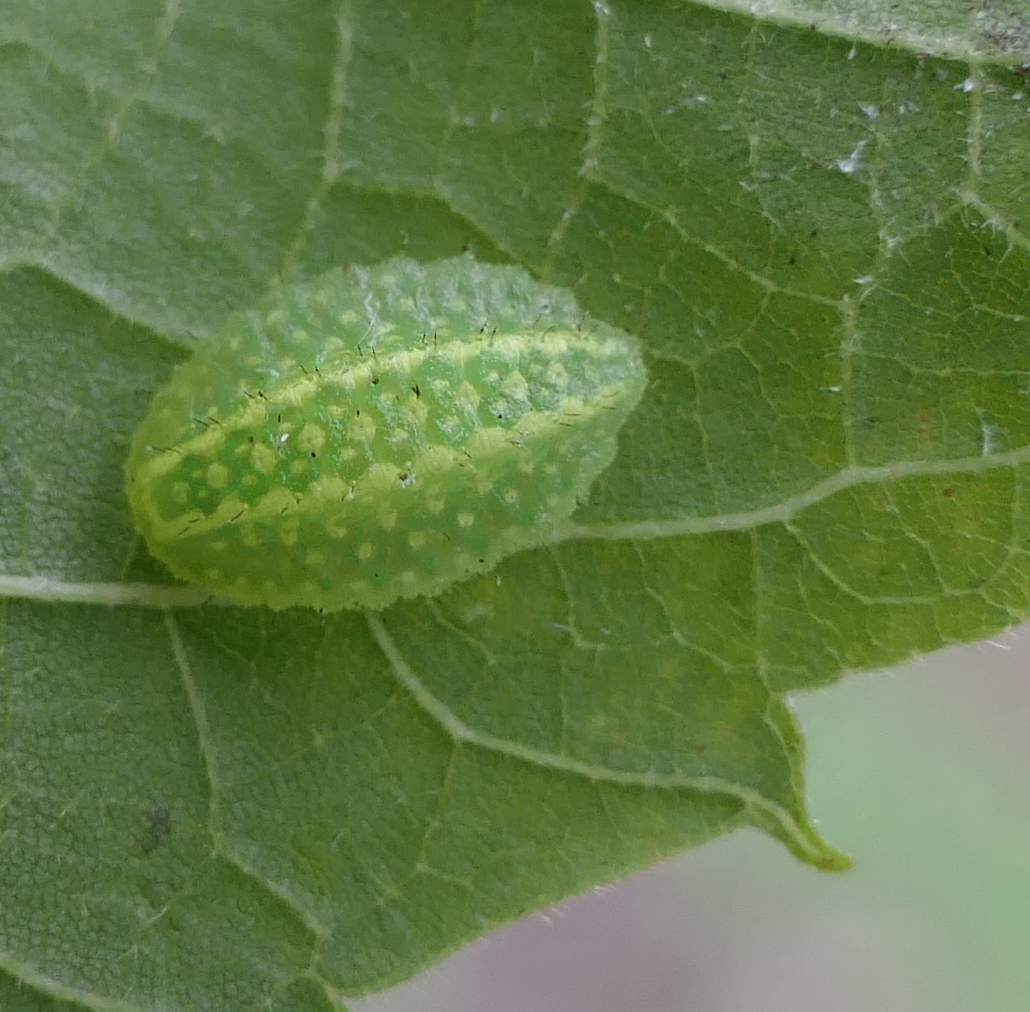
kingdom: Animalia
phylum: Arthropoda
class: Insecta
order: Lepidoptera
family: Limacodidae
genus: Lithacodes
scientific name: Lithacodes fasciola
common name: Yellow-shouldered slug moth
